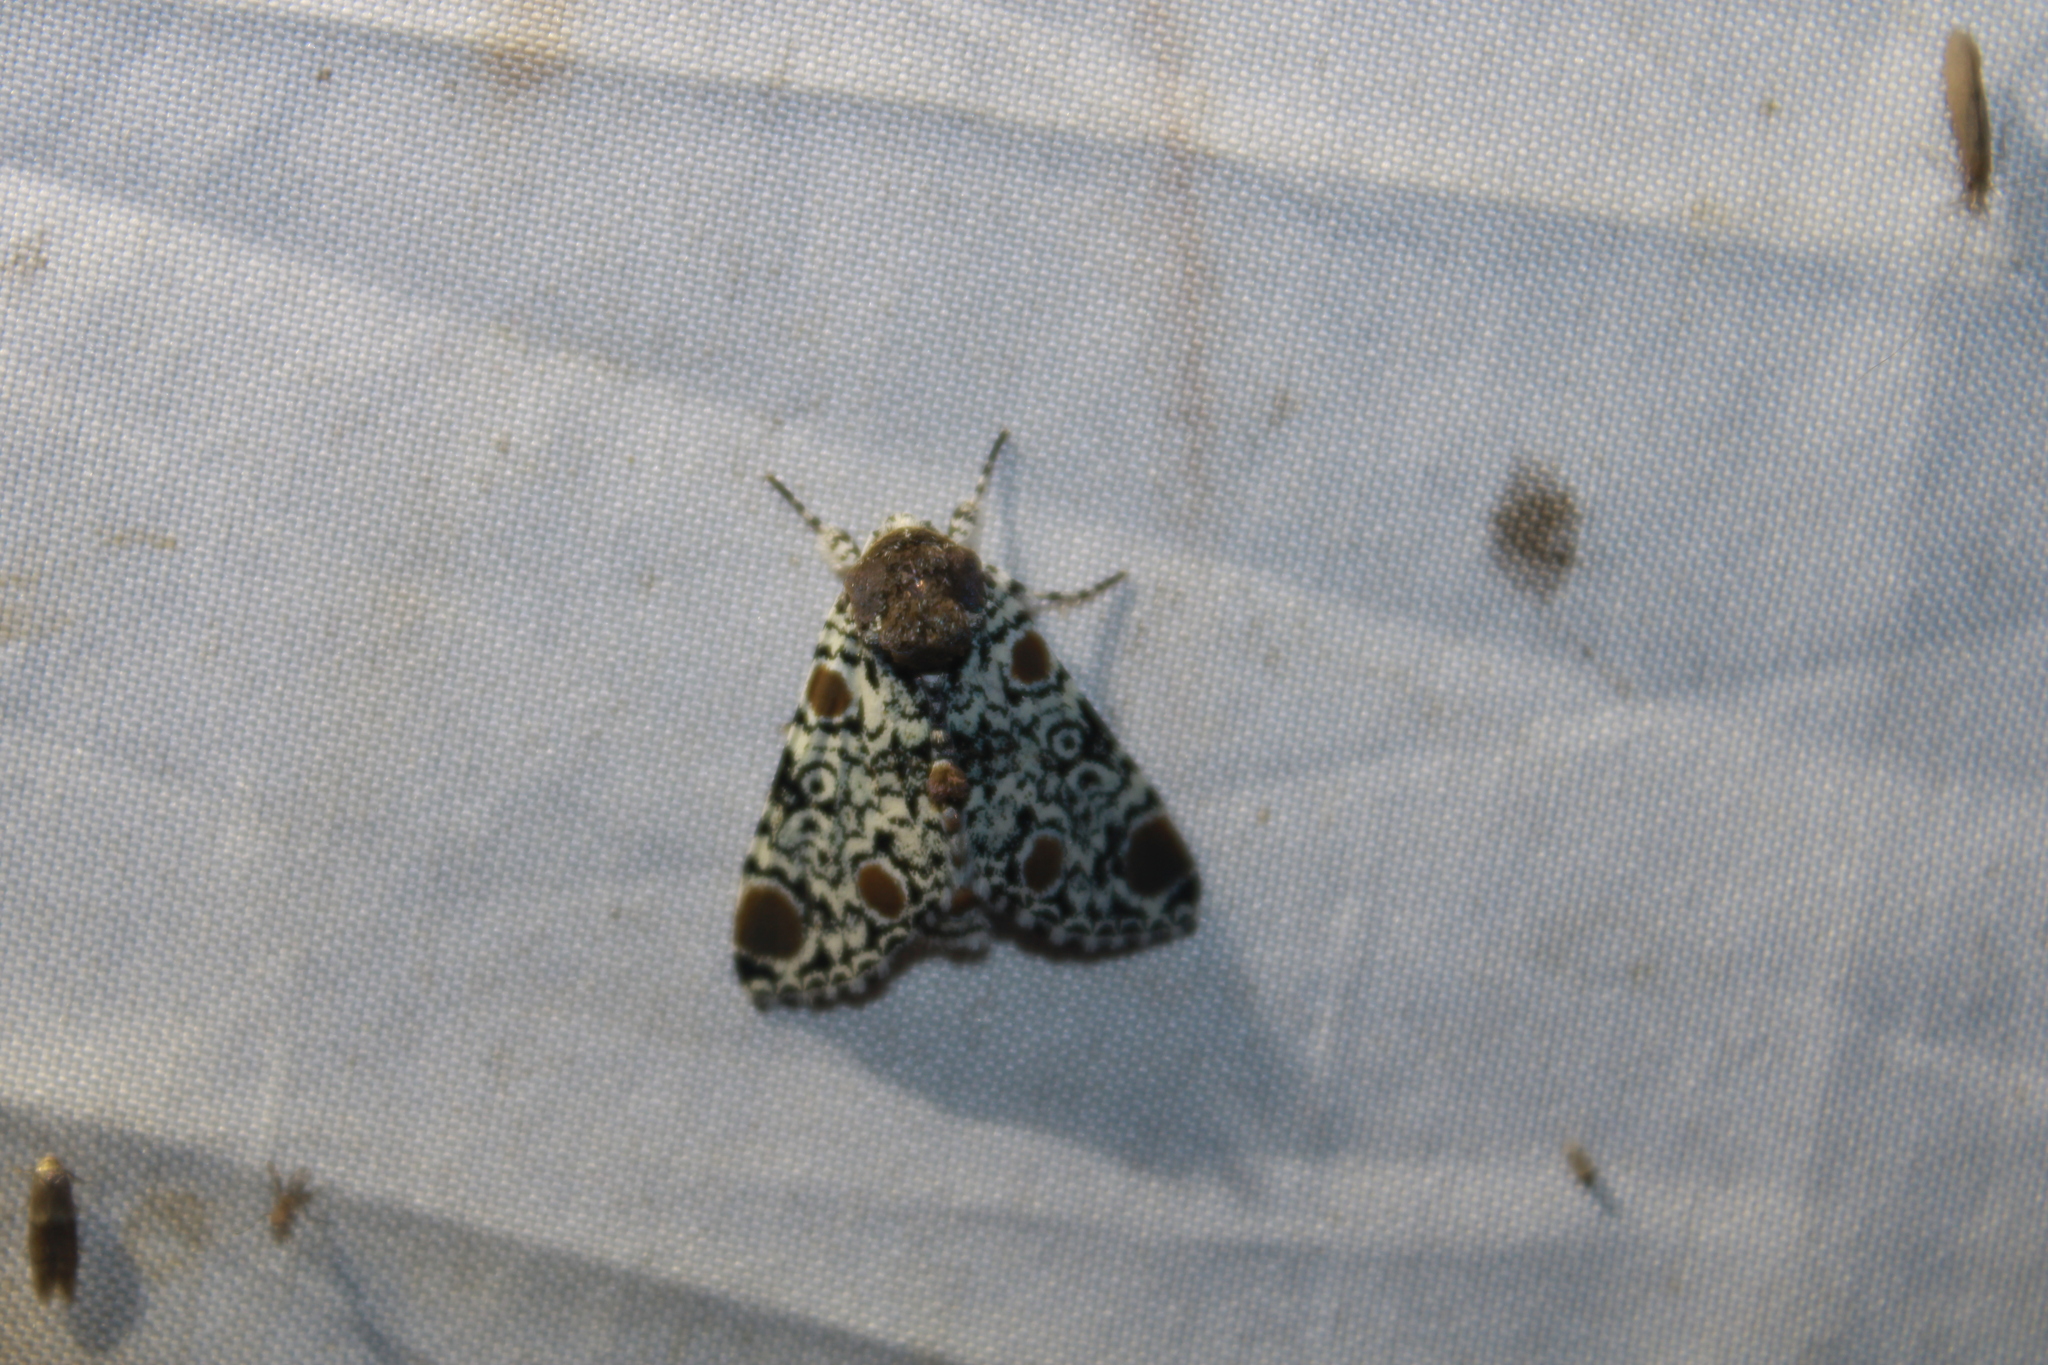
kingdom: Animalia
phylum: Arthropoda
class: Insecta
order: Lepidoptera
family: Noctuidae
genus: Harrisimemna
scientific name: Harrisimemna trisignata
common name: Harris threespot
